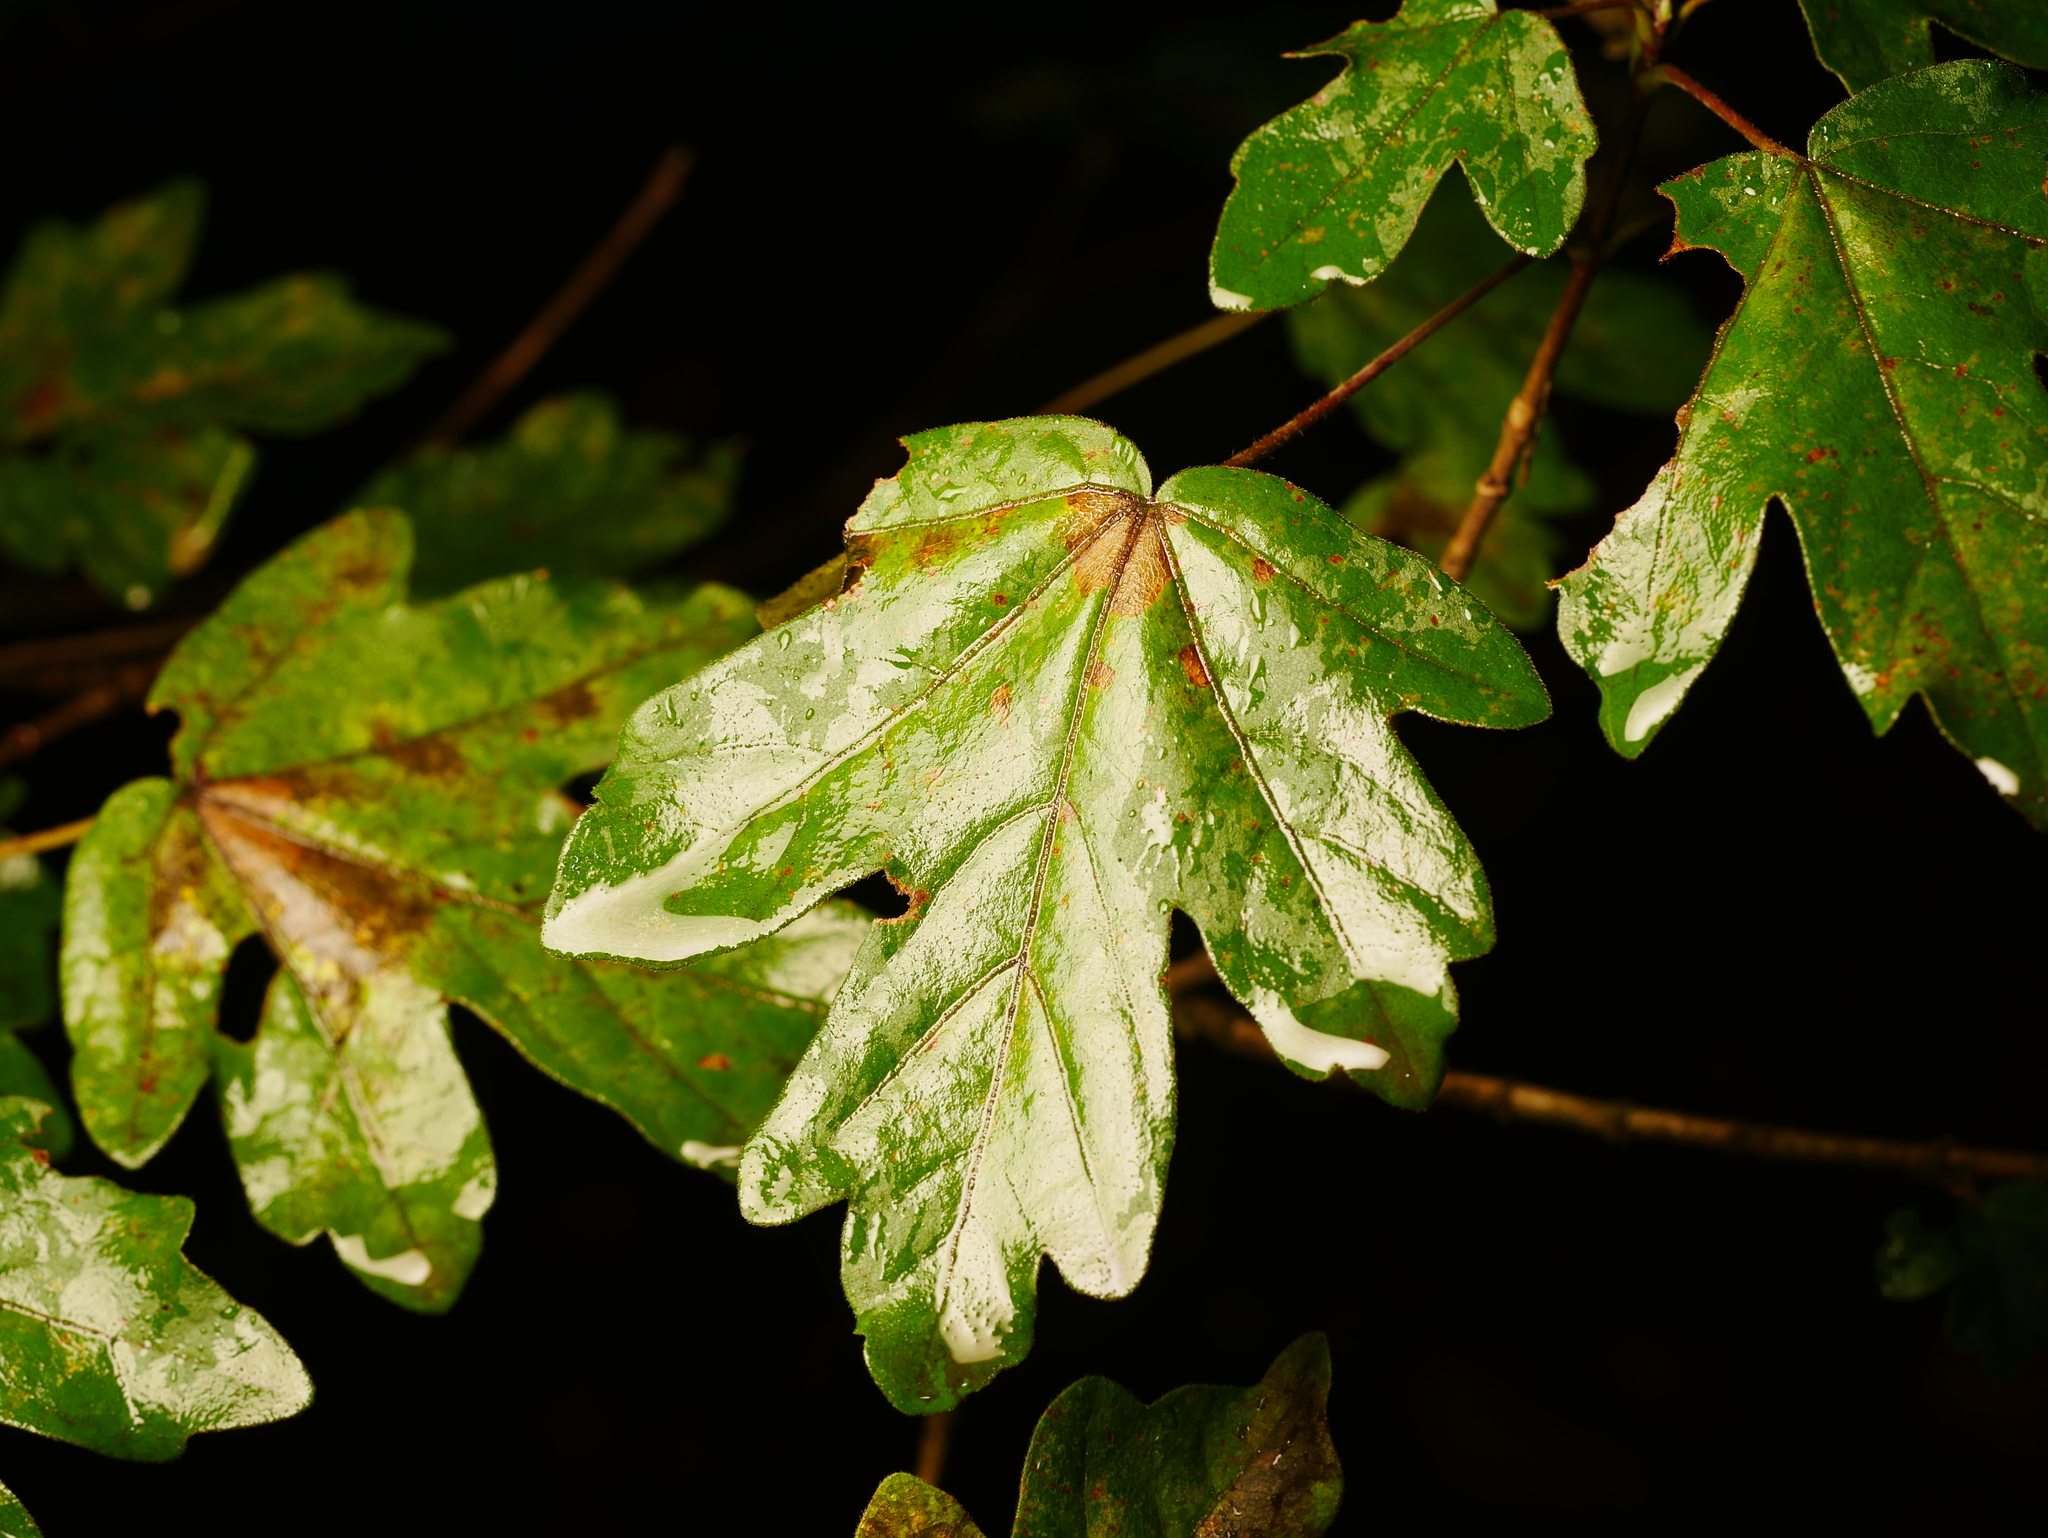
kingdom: Plantae
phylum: Tracheophyta
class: Magnoliopsida
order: Sapindales
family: Sapindaceae
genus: Acer
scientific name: Acer campestre
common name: Field maple
